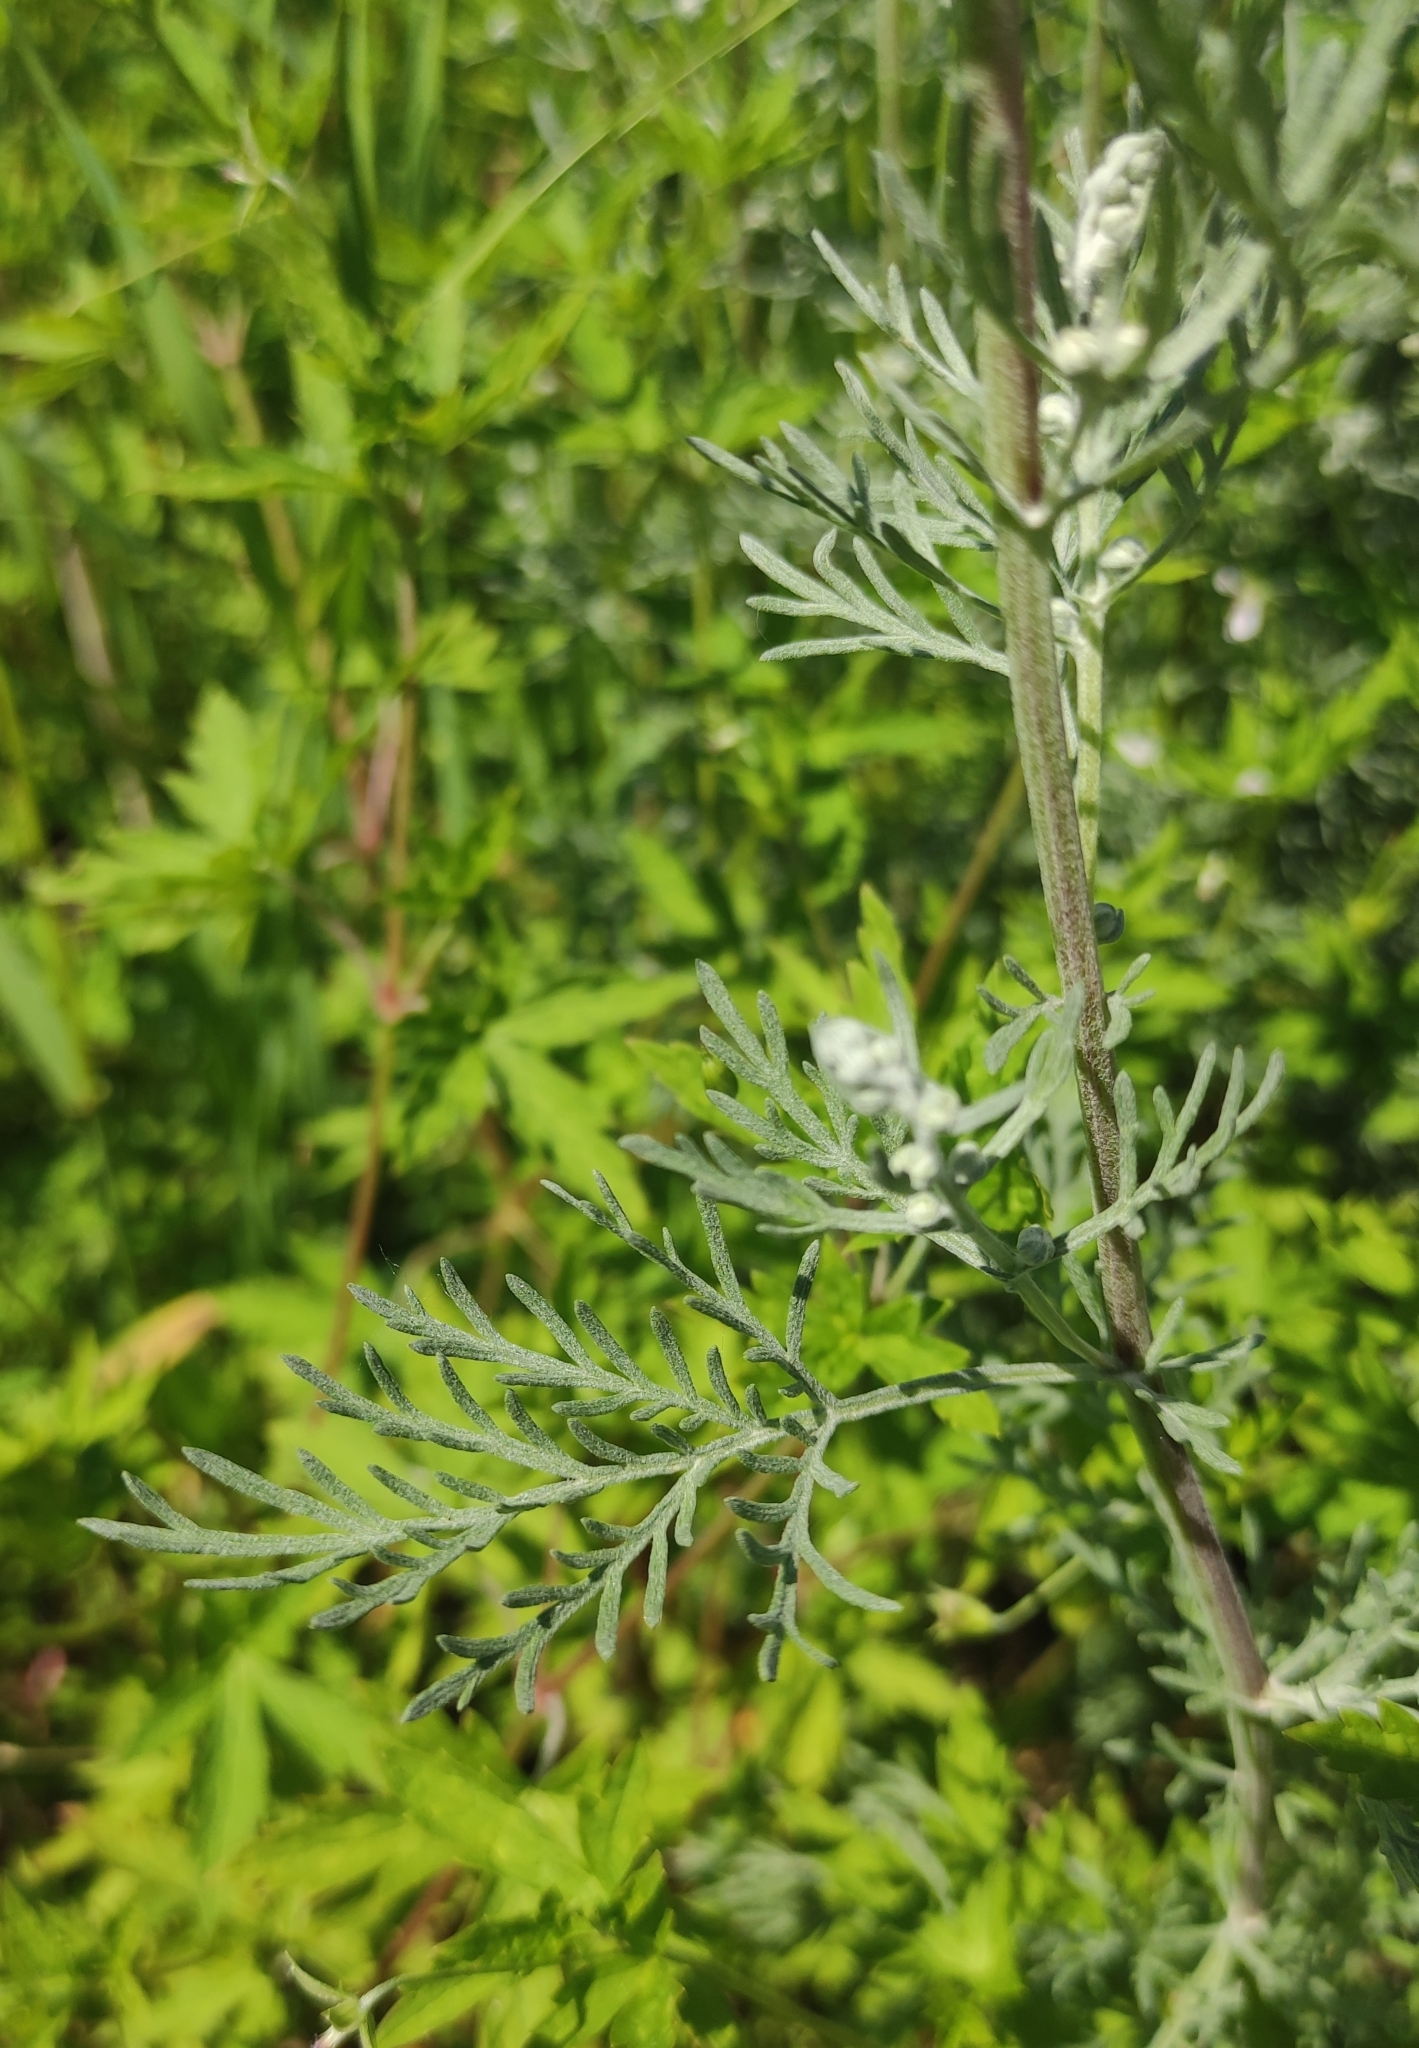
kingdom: Plantae
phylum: Tracheophyta
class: Magnoliopsida
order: Asterales
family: Asteraceae
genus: Artemisia
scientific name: Artemisia sieversiana
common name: Sieversian wormwood
